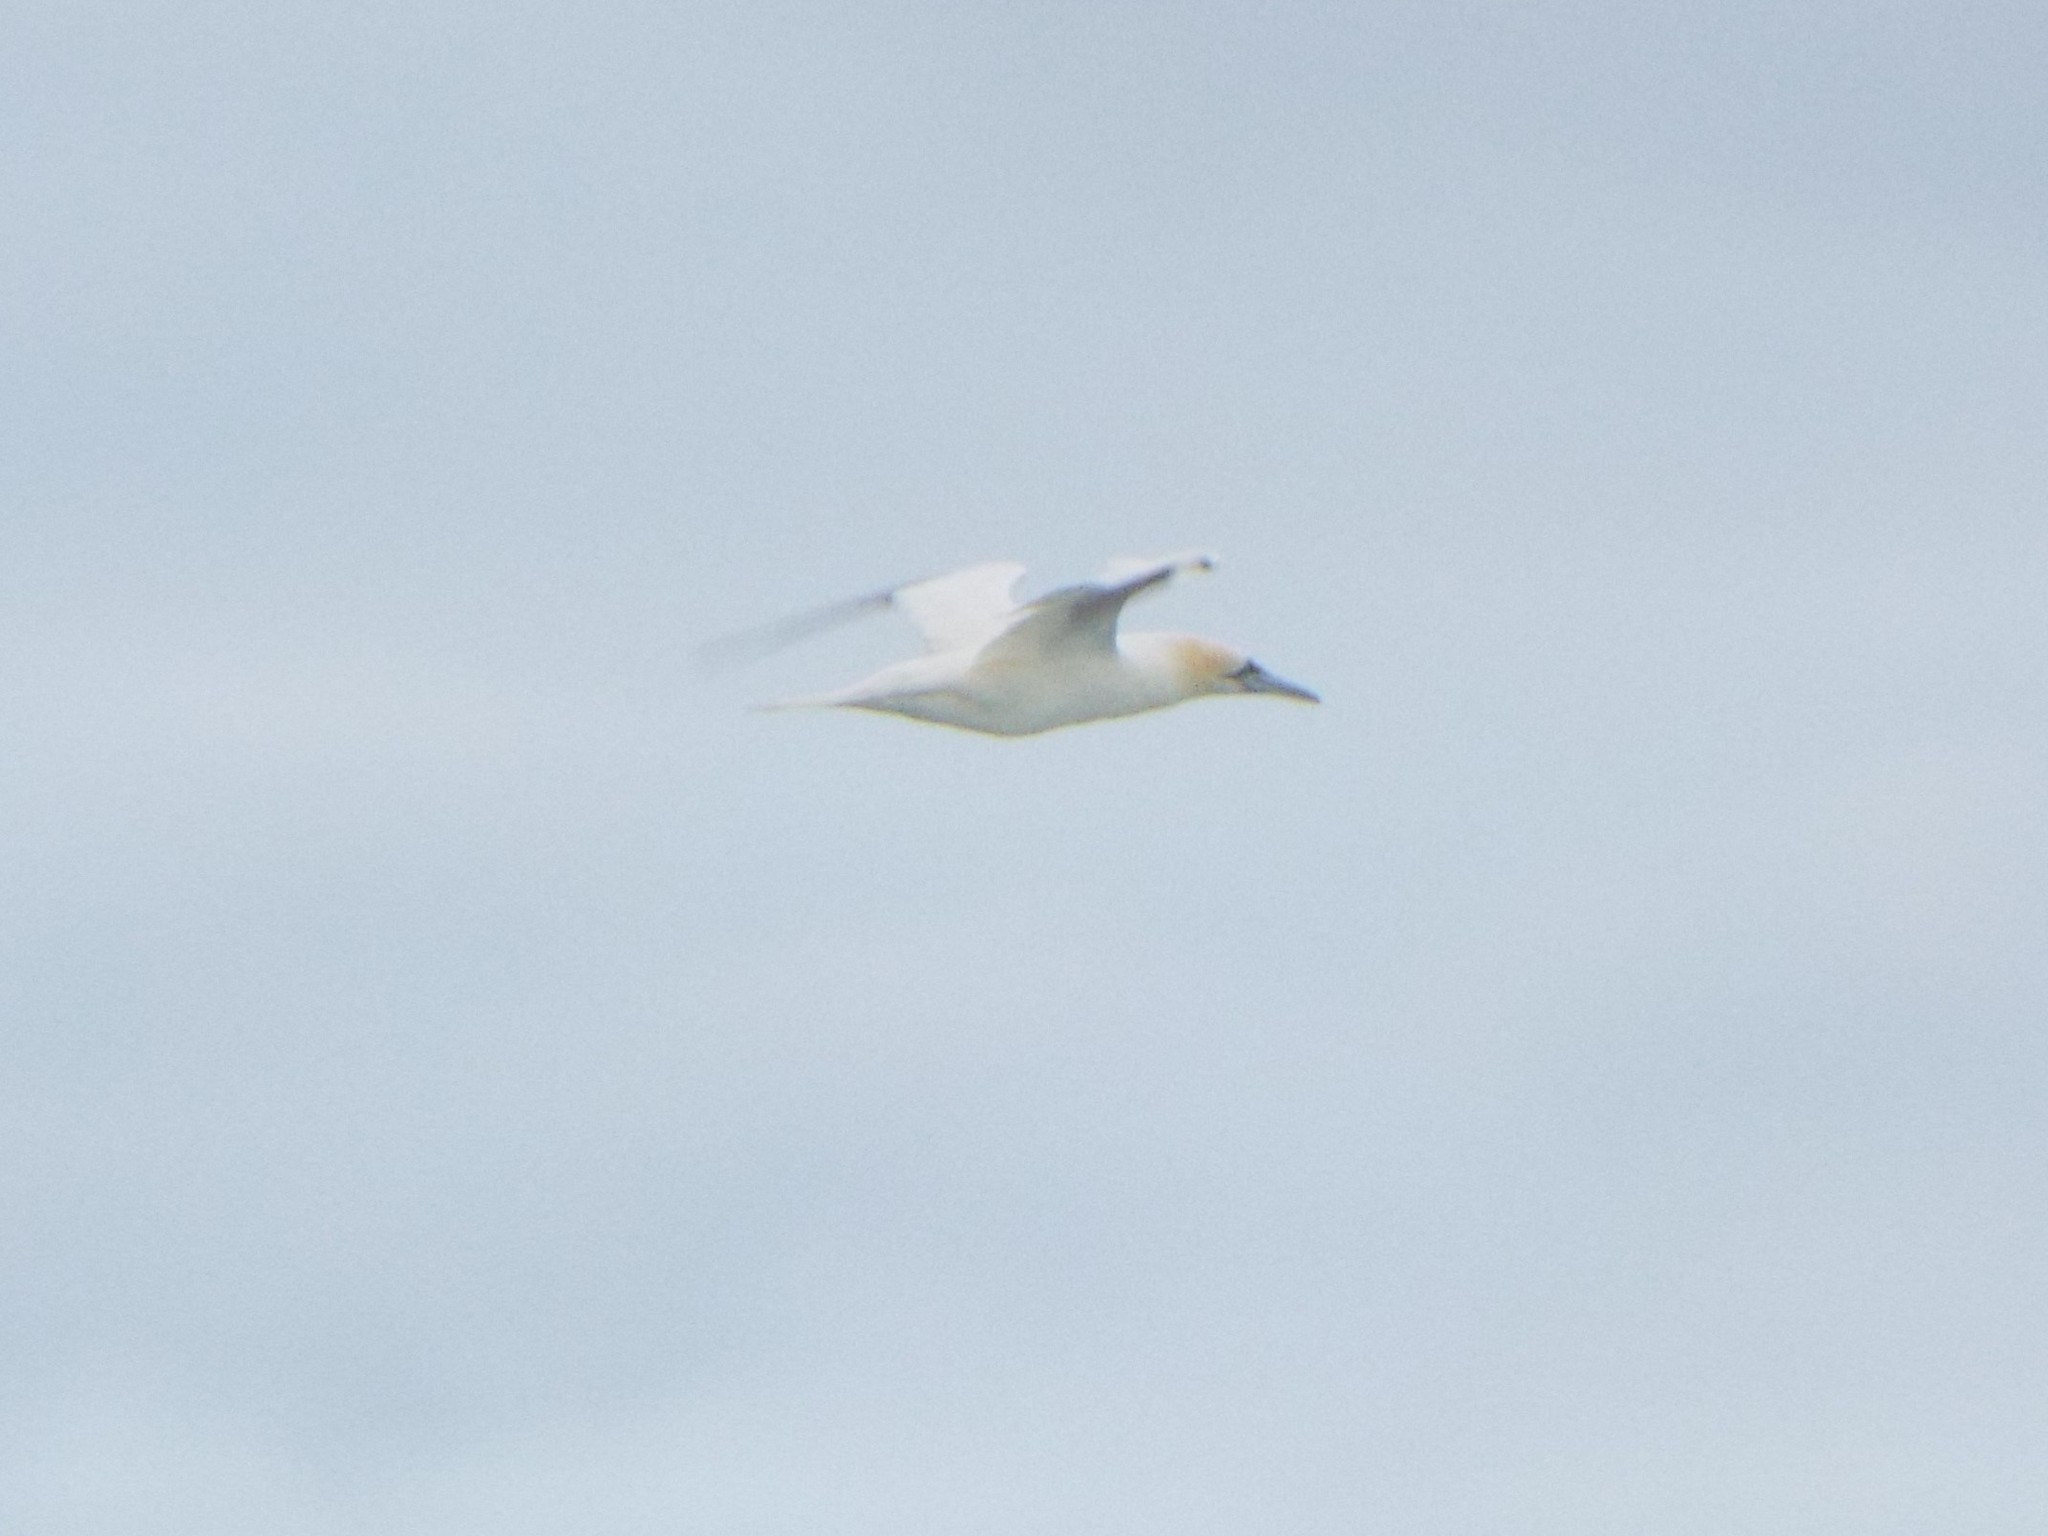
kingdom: Animalia
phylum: Chordata
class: Aves
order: Suliformes
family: Sulidae
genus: Morus
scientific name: Morus bassanus
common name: Northern gannet
